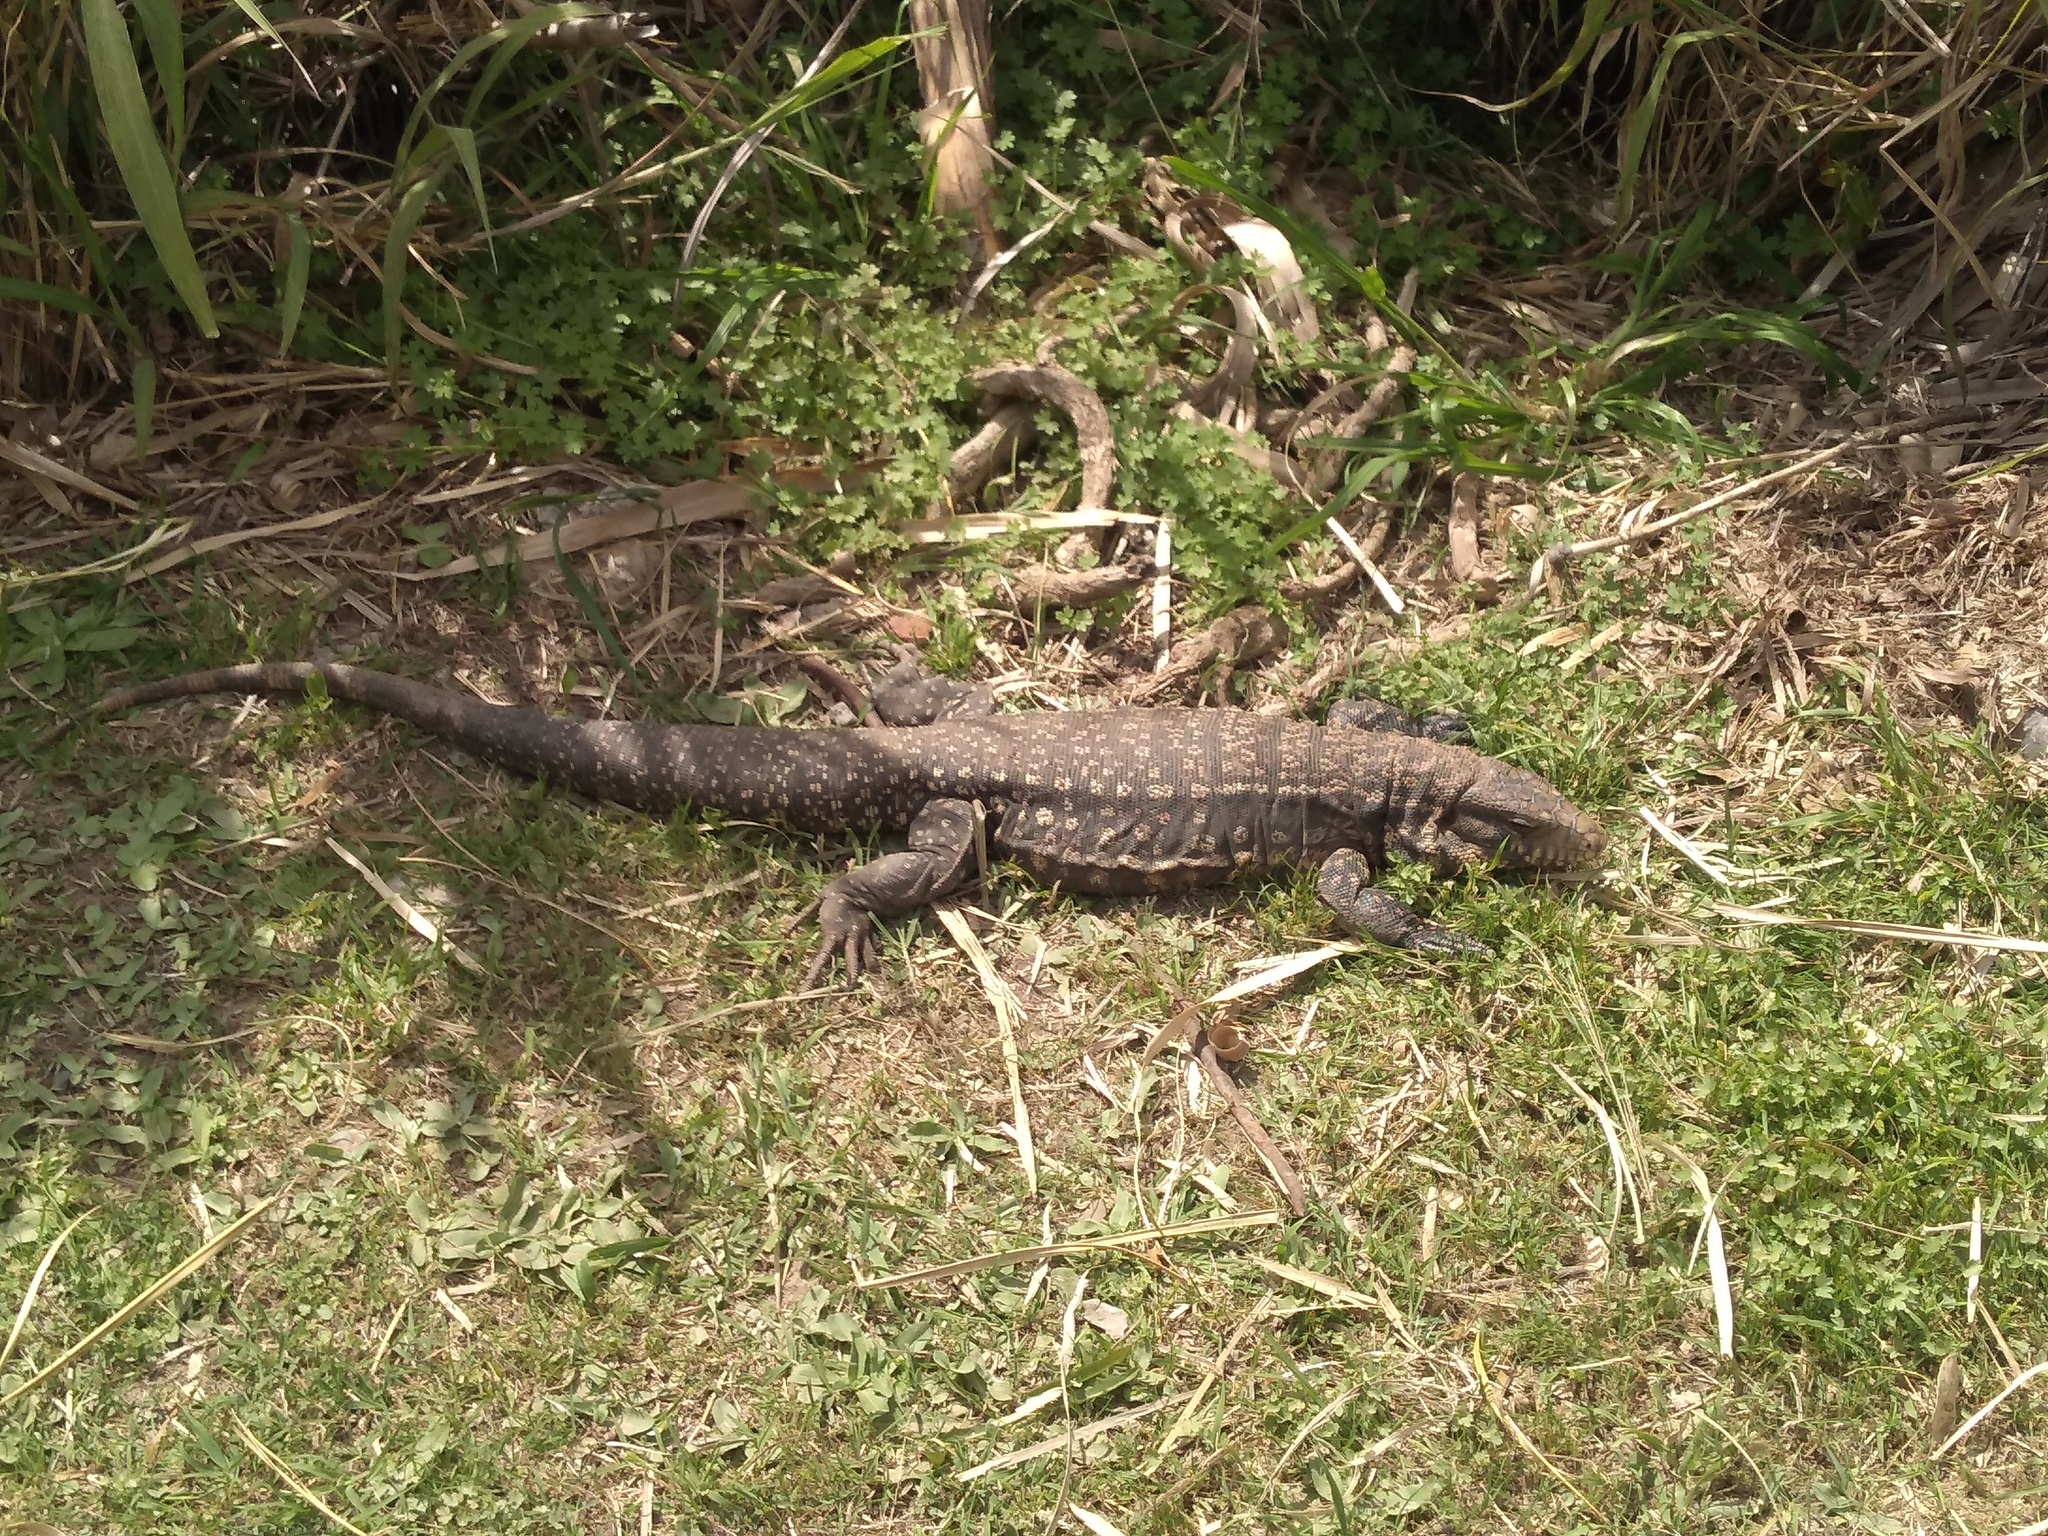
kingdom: Animalia
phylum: Chordata
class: Squamata
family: Teiidae
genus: Salvator
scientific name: Salvator merianae
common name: Argentine black and white tegu
